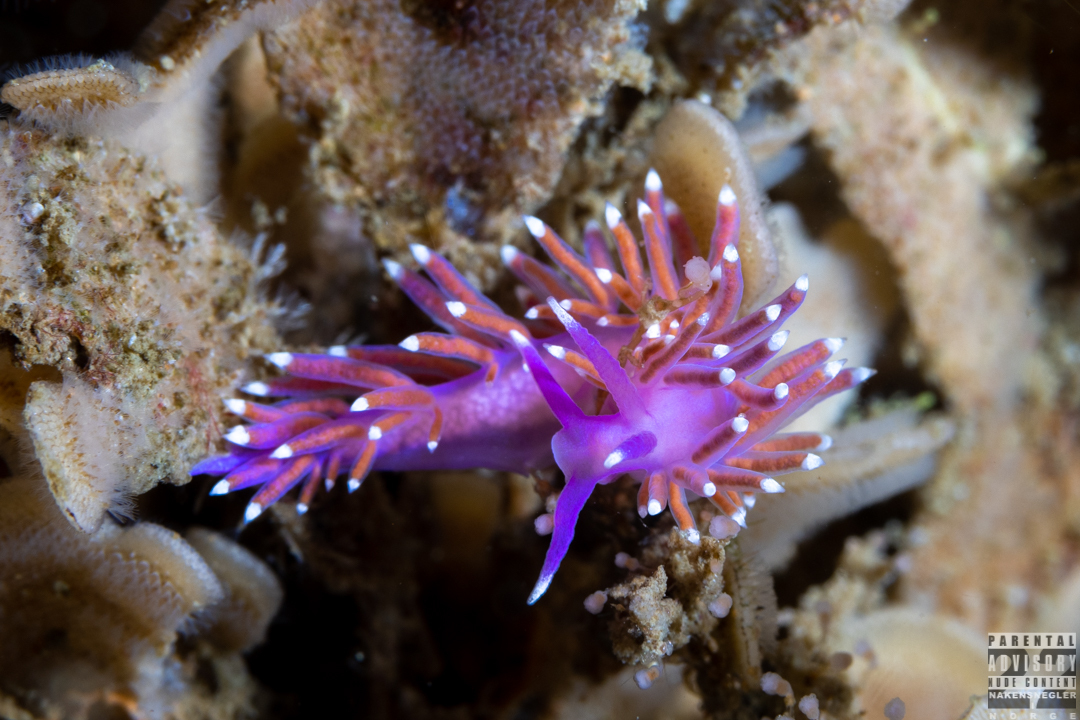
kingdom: Animalia
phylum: Mollusca
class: Gastropoda
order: Nudibranchia
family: Flabellinidae
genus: Edmundsella
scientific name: Edmundsella pedata
